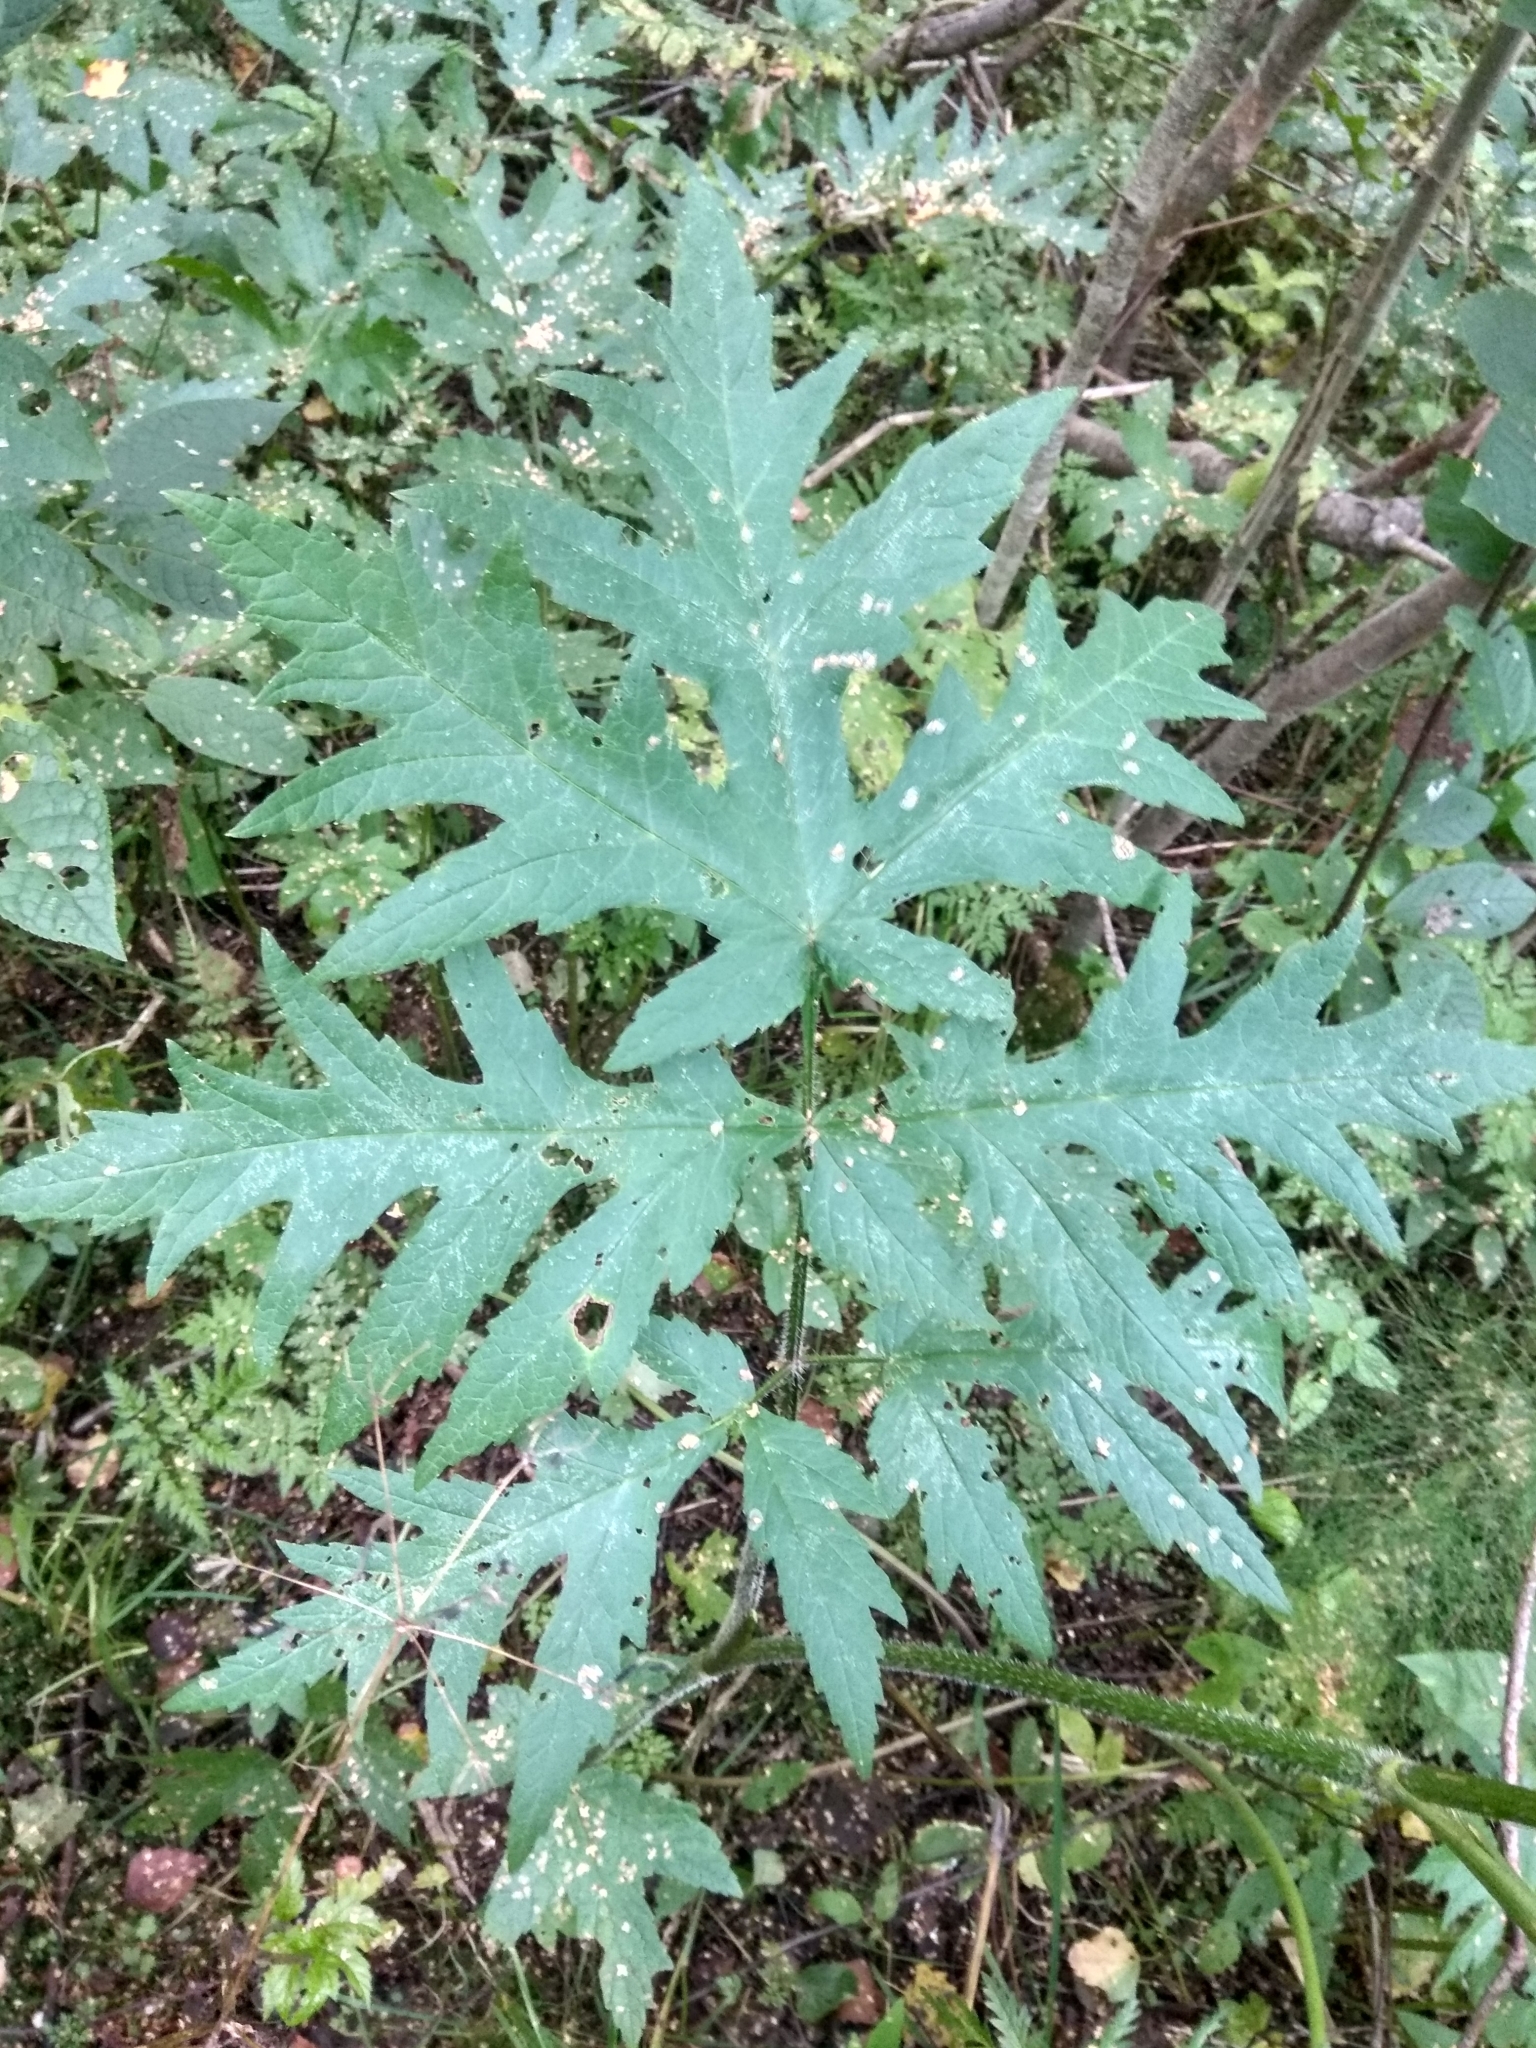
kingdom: Plantae
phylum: Tracheophyta
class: Magnoliopsida
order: Apiales
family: Apiaceae
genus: Heracleum
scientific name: Heracleum sphondylium
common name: Hogweed
